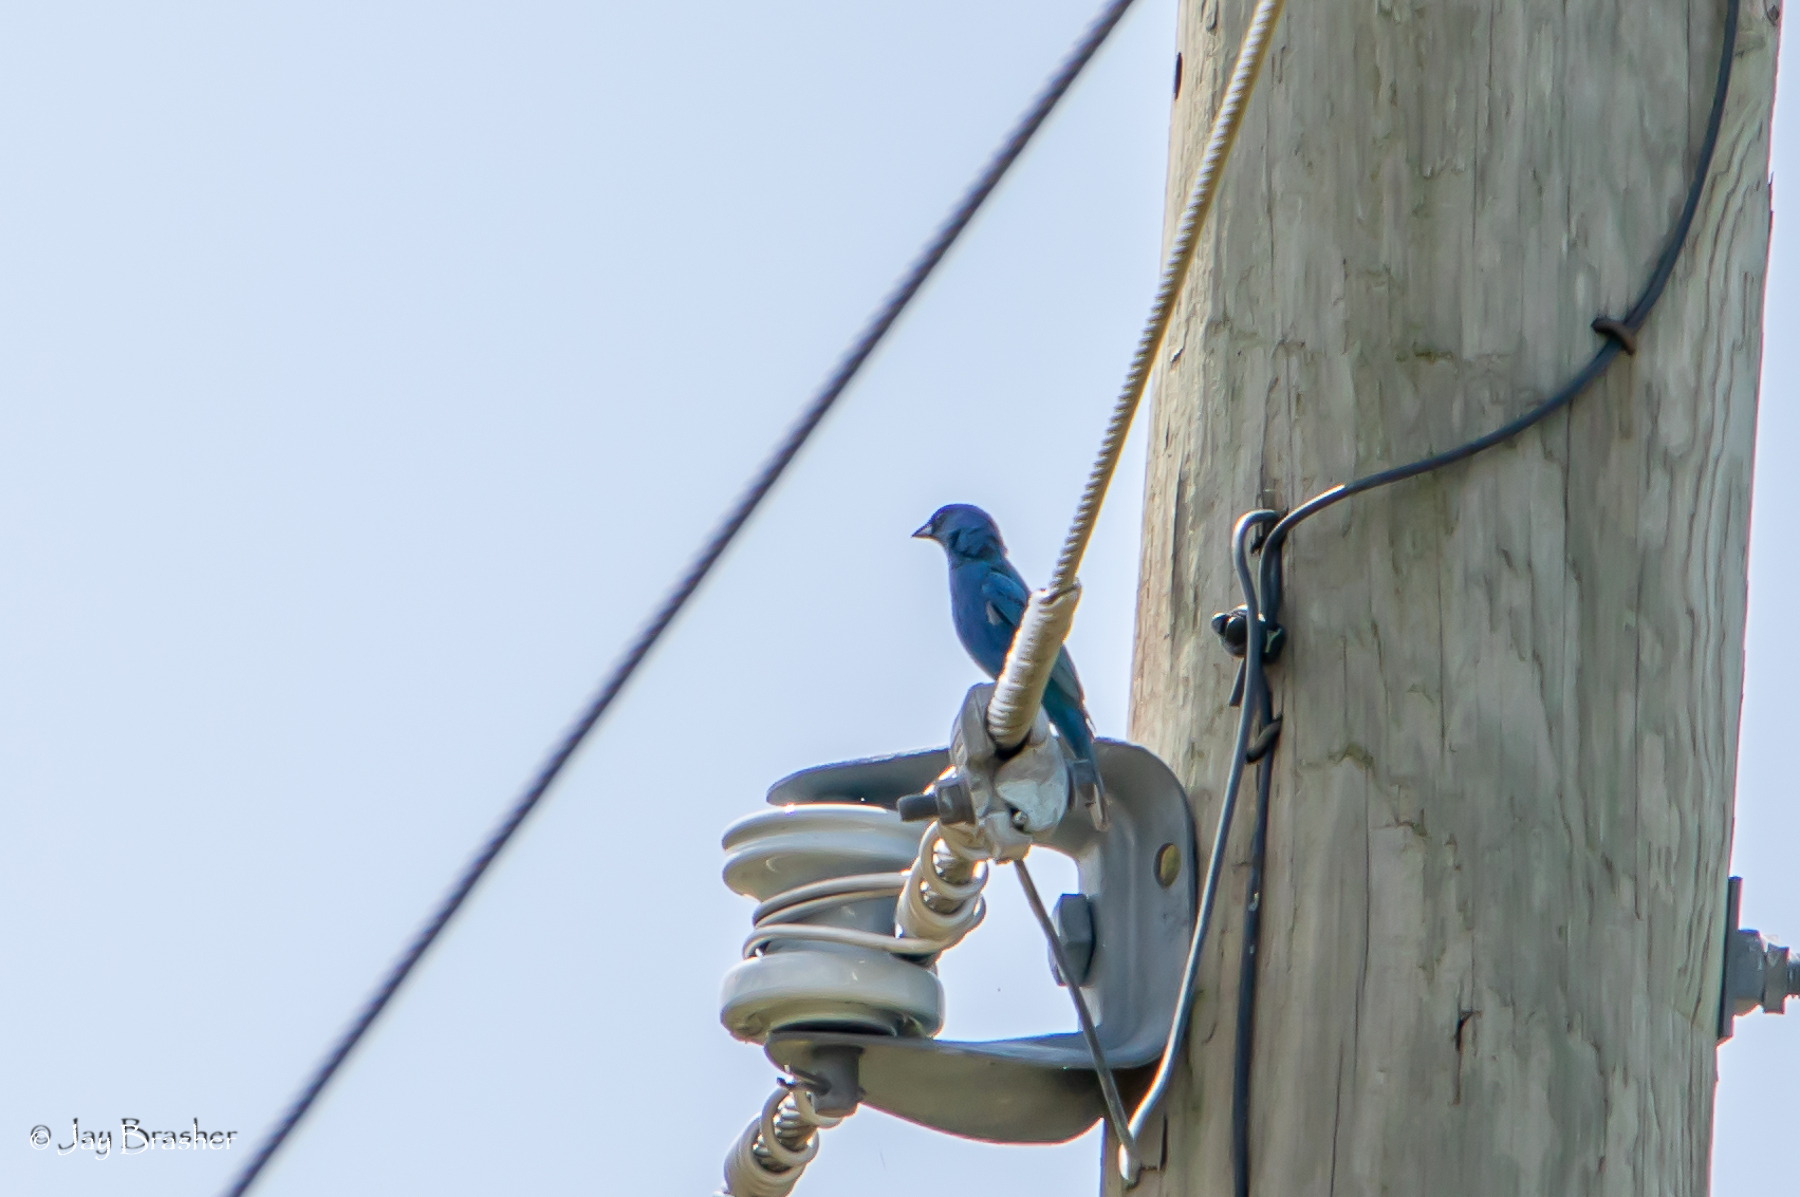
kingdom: Animalia
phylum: Chordata
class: Aves
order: Passeriformes
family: Cardinalidae
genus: Passerina
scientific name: Passerina cyanea
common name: Indigo bunting
